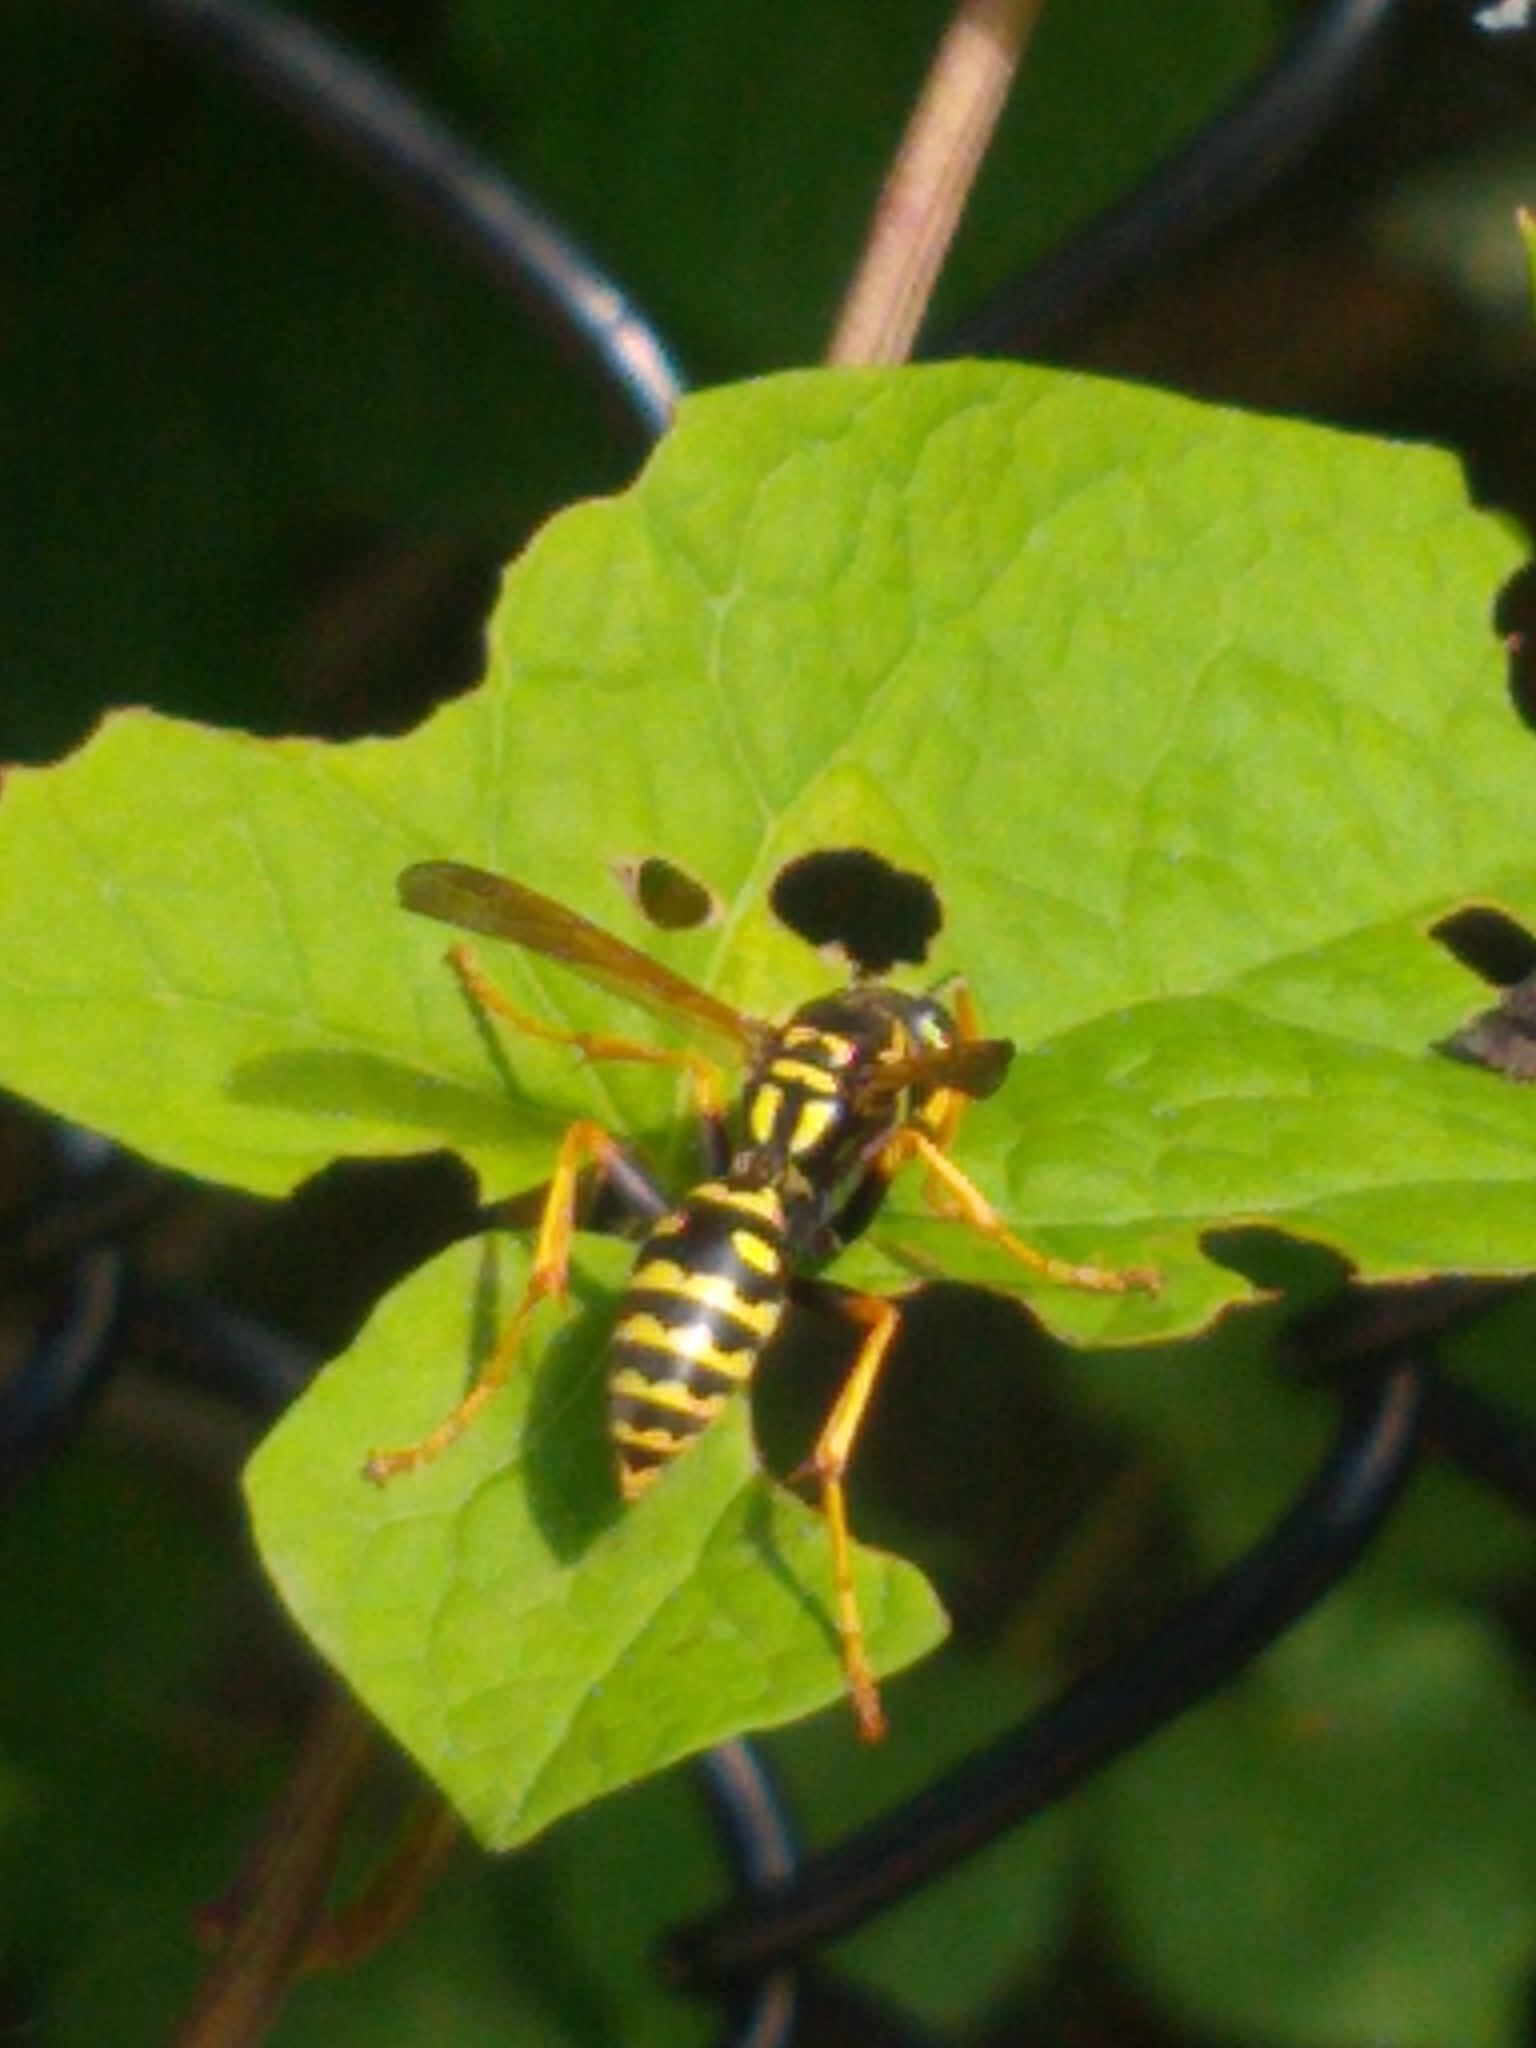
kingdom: Animalia
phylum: Arthropoda
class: Insecta
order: Hymenoptera
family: Eumenidae
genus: Polistes
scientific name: Polistes dominula
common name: Paper wasp
